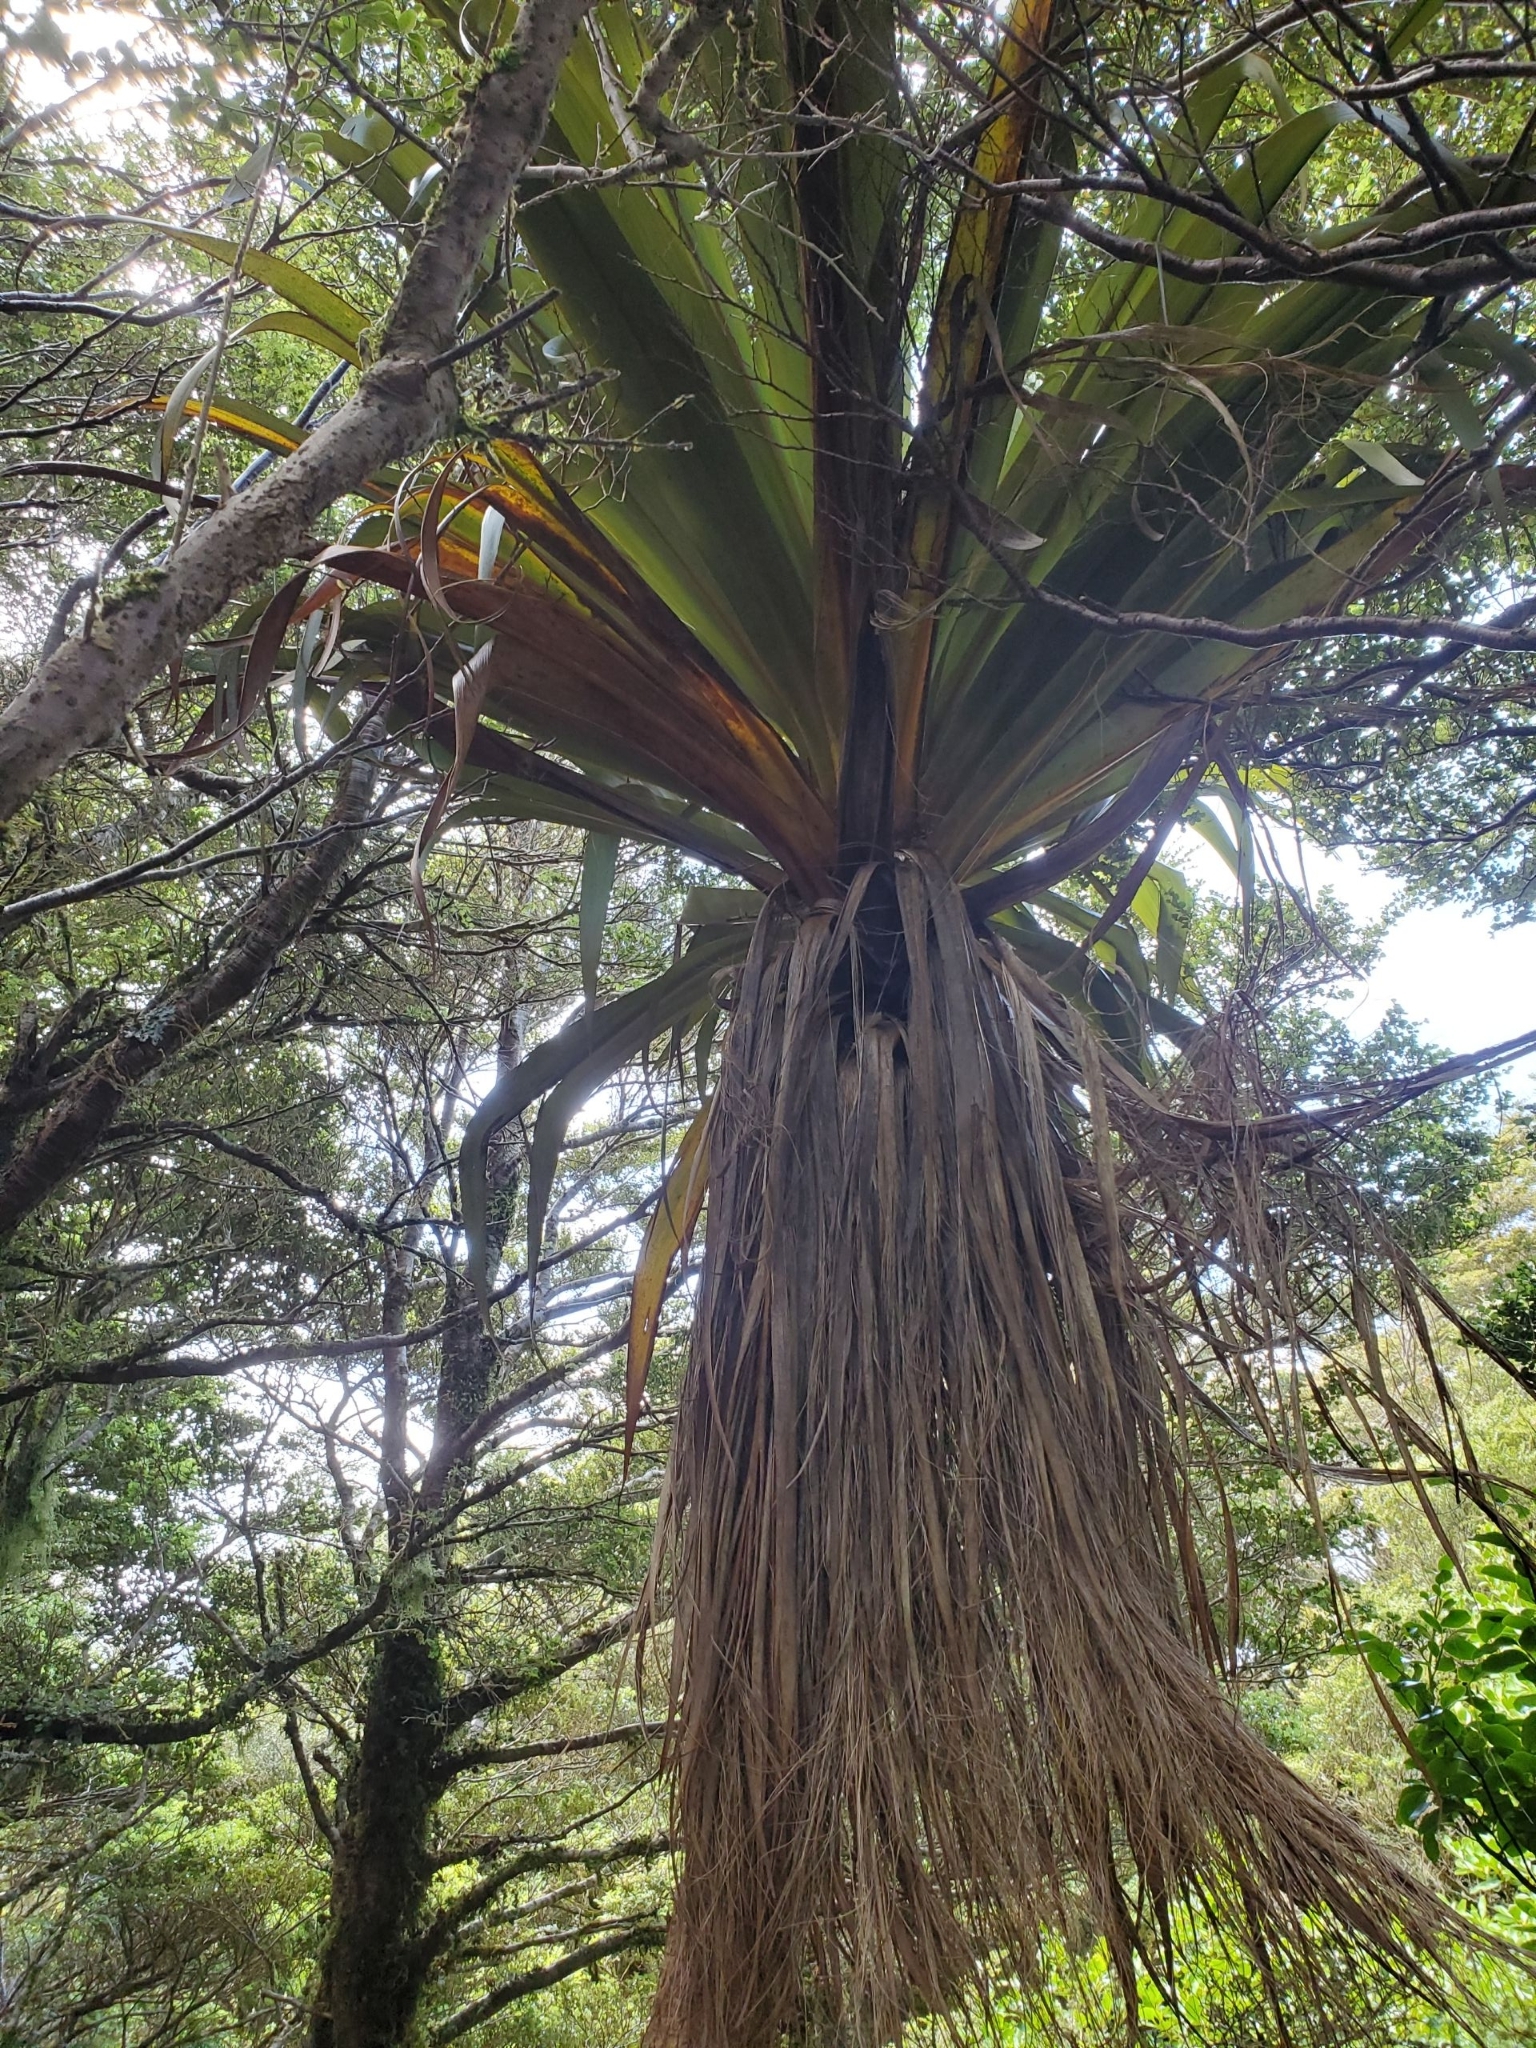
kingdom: Plantae
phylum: Tracheophyta
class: Liliopsida
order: Asparagales
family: Asparagaceae
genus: Cordyline
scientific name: Cordyline indivisa
